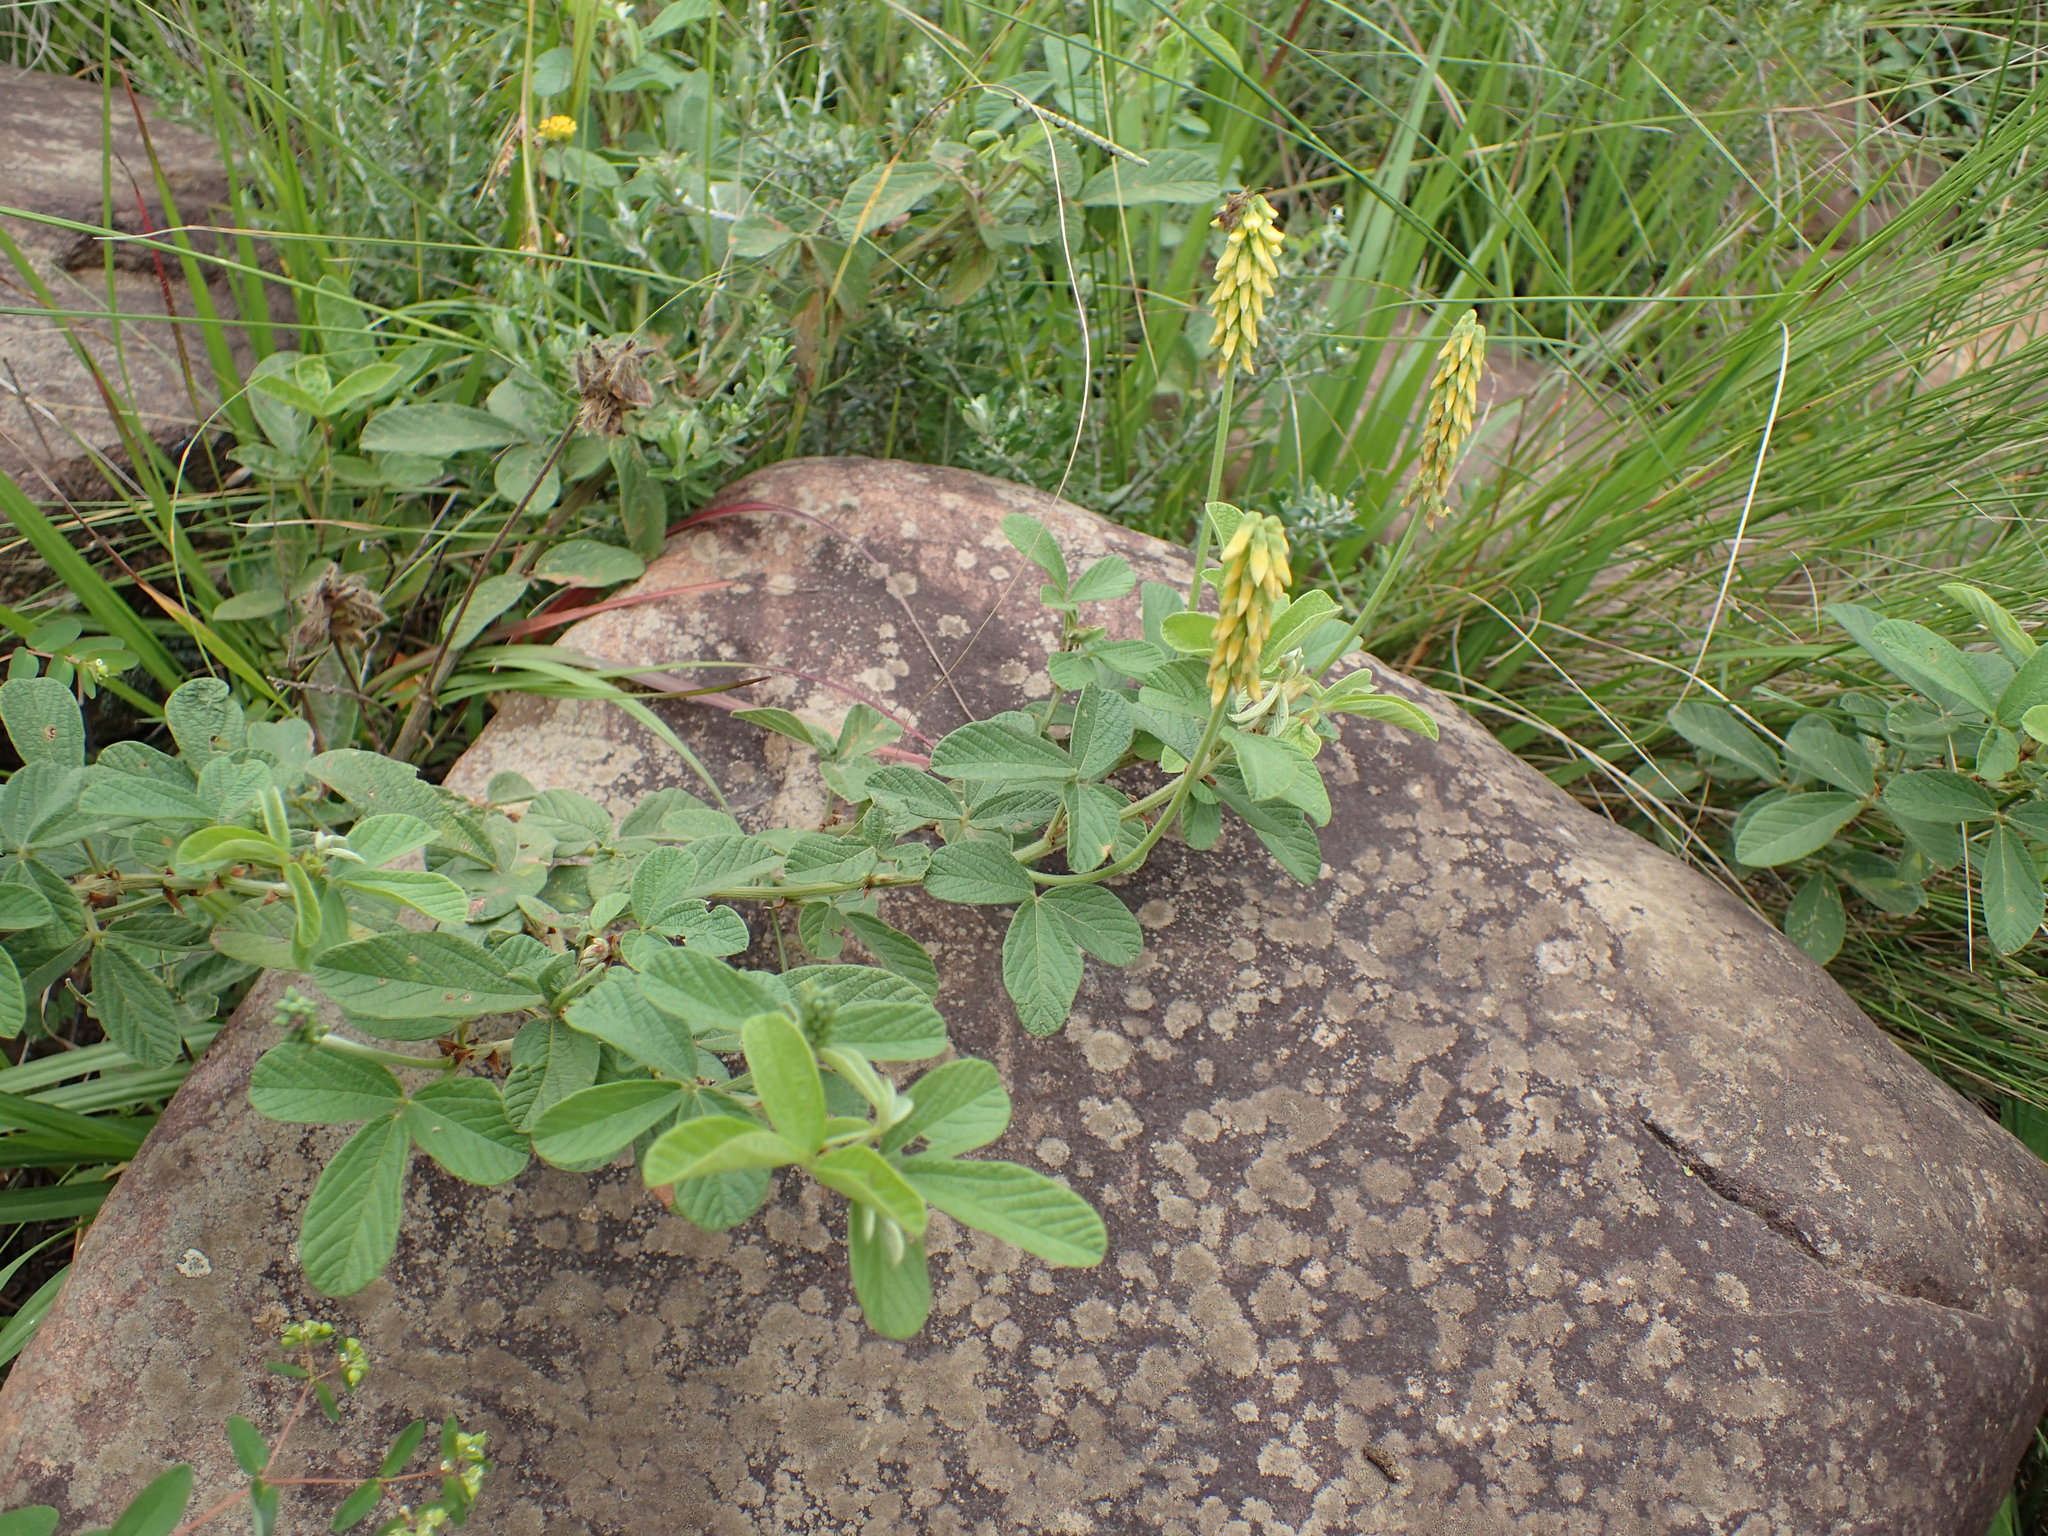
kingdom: Plantae
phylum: Tracheophyta
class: Magnoliopsida
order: Fabales
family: Fabaceae
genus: Eriosema
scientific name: Eriosema parviflorum
